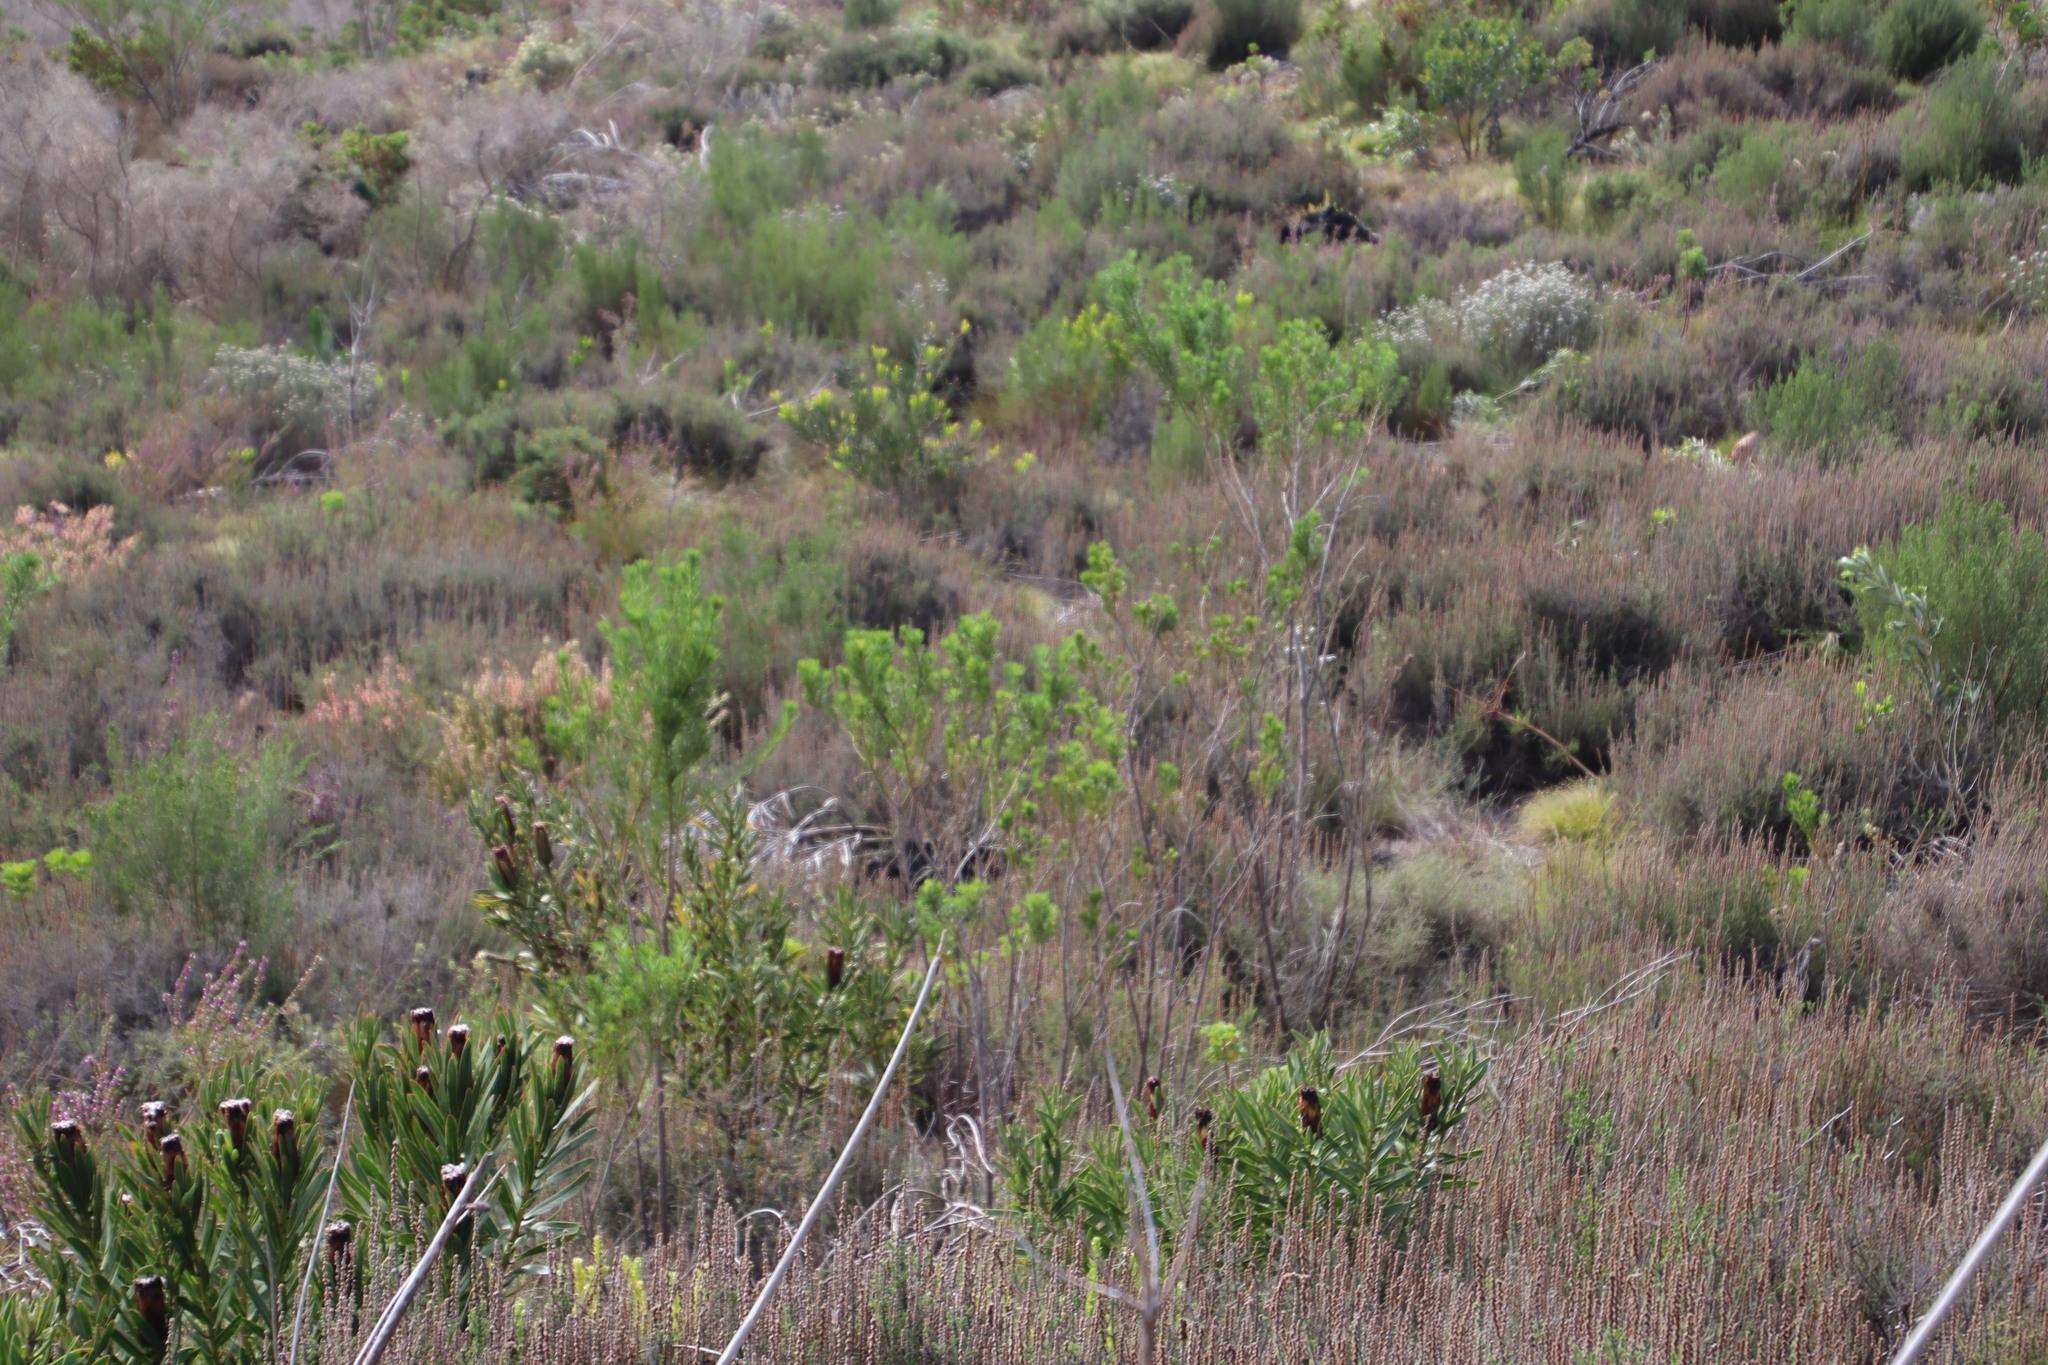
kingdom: Plantae
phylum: Tracheophyta
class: Magnoliopsida
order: Fabales
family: Fabaceae
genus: Psoralea
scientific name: Psoralea pinnata
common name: African scurfpea
